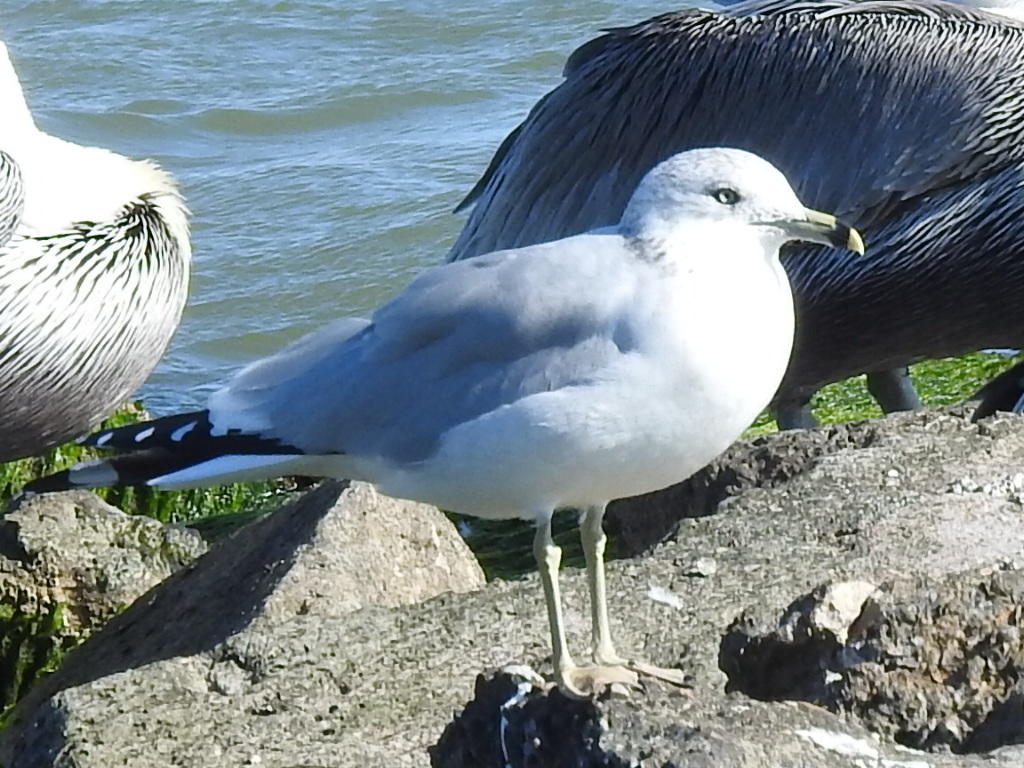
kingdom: Animalia
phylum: Chordata
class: Aves
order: Charadriiformes
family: Laridae
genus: Larus
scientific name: Larus delawarensis
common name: Ring-billed gull
